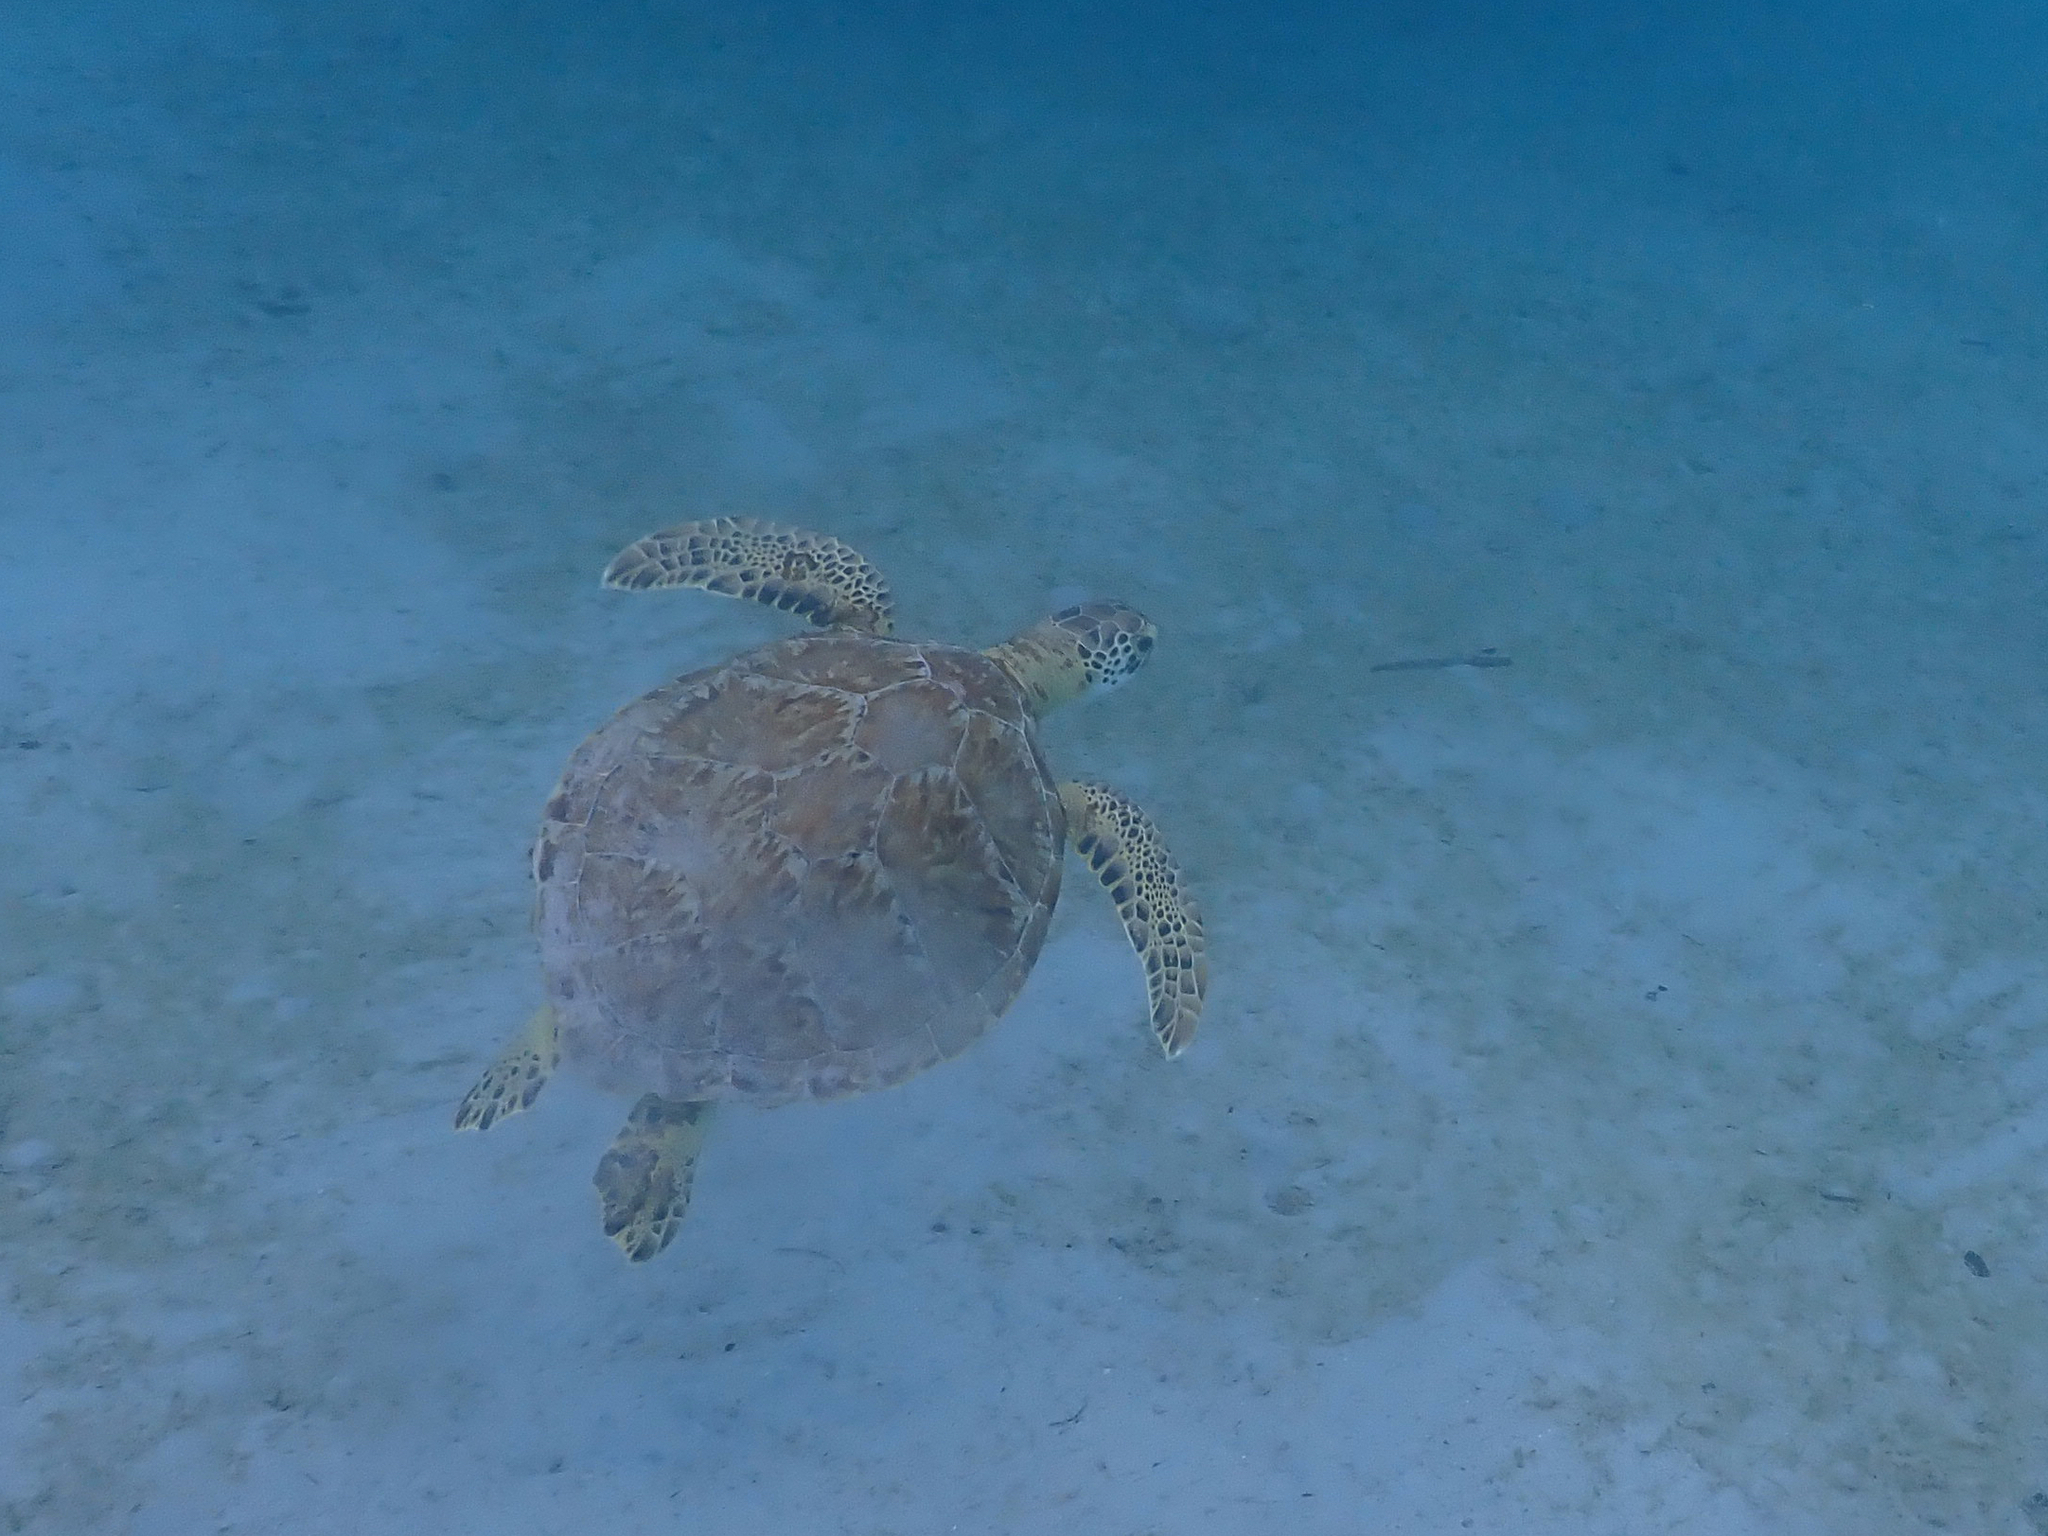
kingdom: Animalia
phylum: Chordata
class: Testudines
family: Cheloniidae
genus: Chelonia
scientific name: Chelonia mydas
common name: Green turtle
